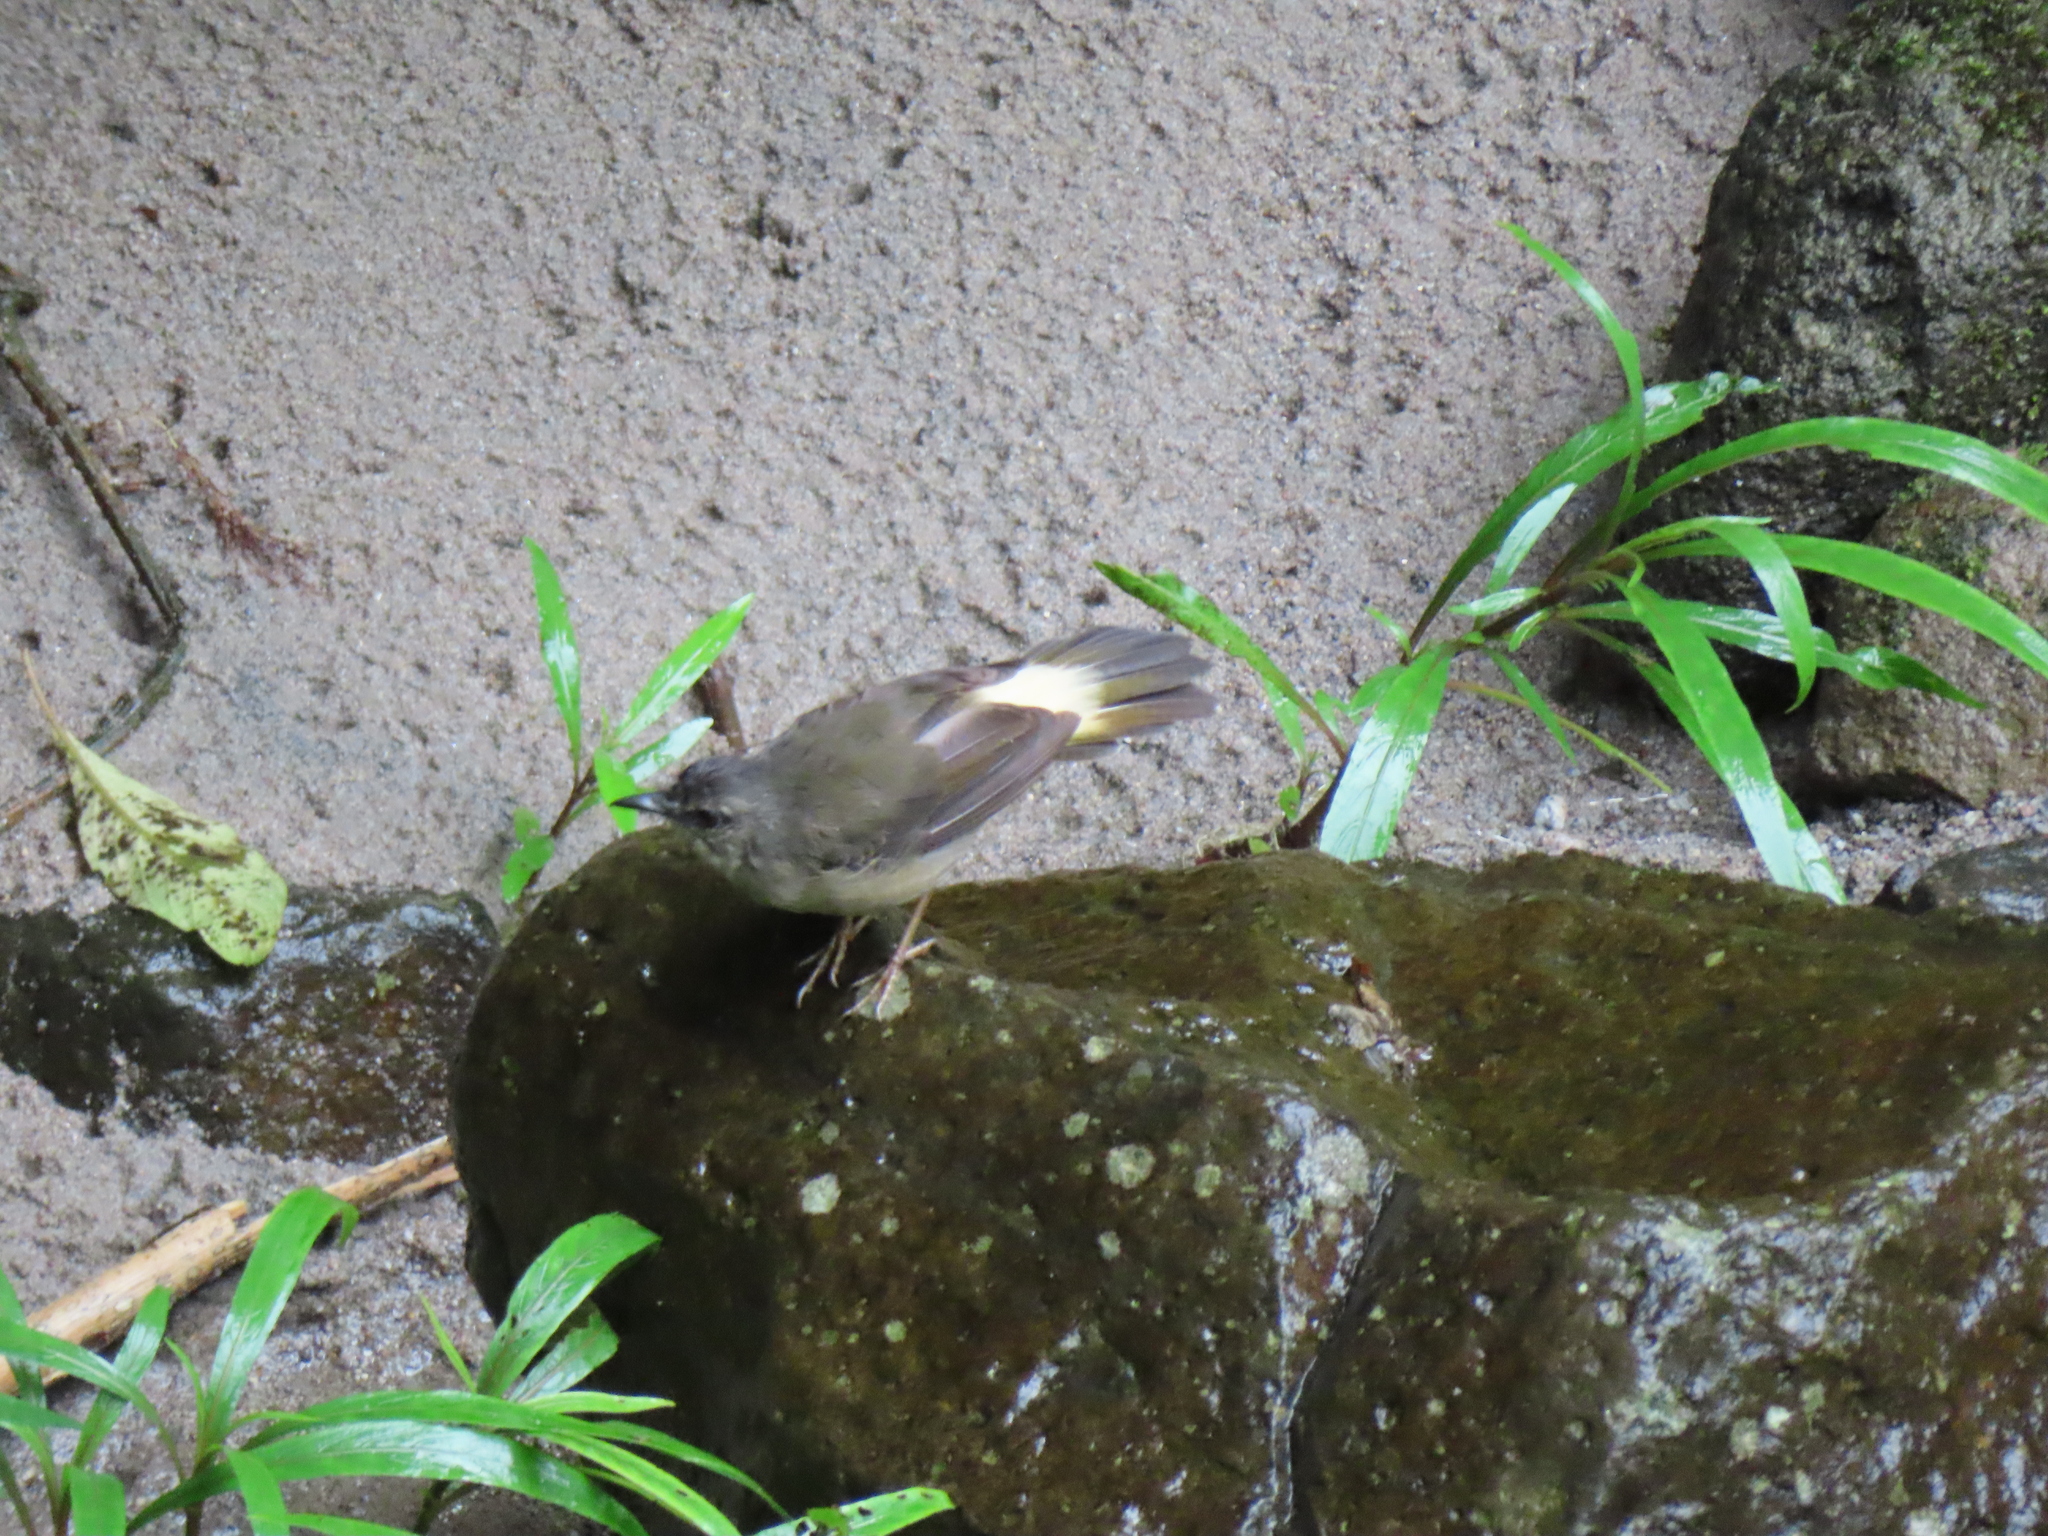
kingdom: Animalia
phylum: Chordata
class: Aves
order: Passeriformes
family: Parulidae
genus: Myiothlypis
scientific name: Myiothlypis fulvicauda
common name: Buff-rumped warbler
